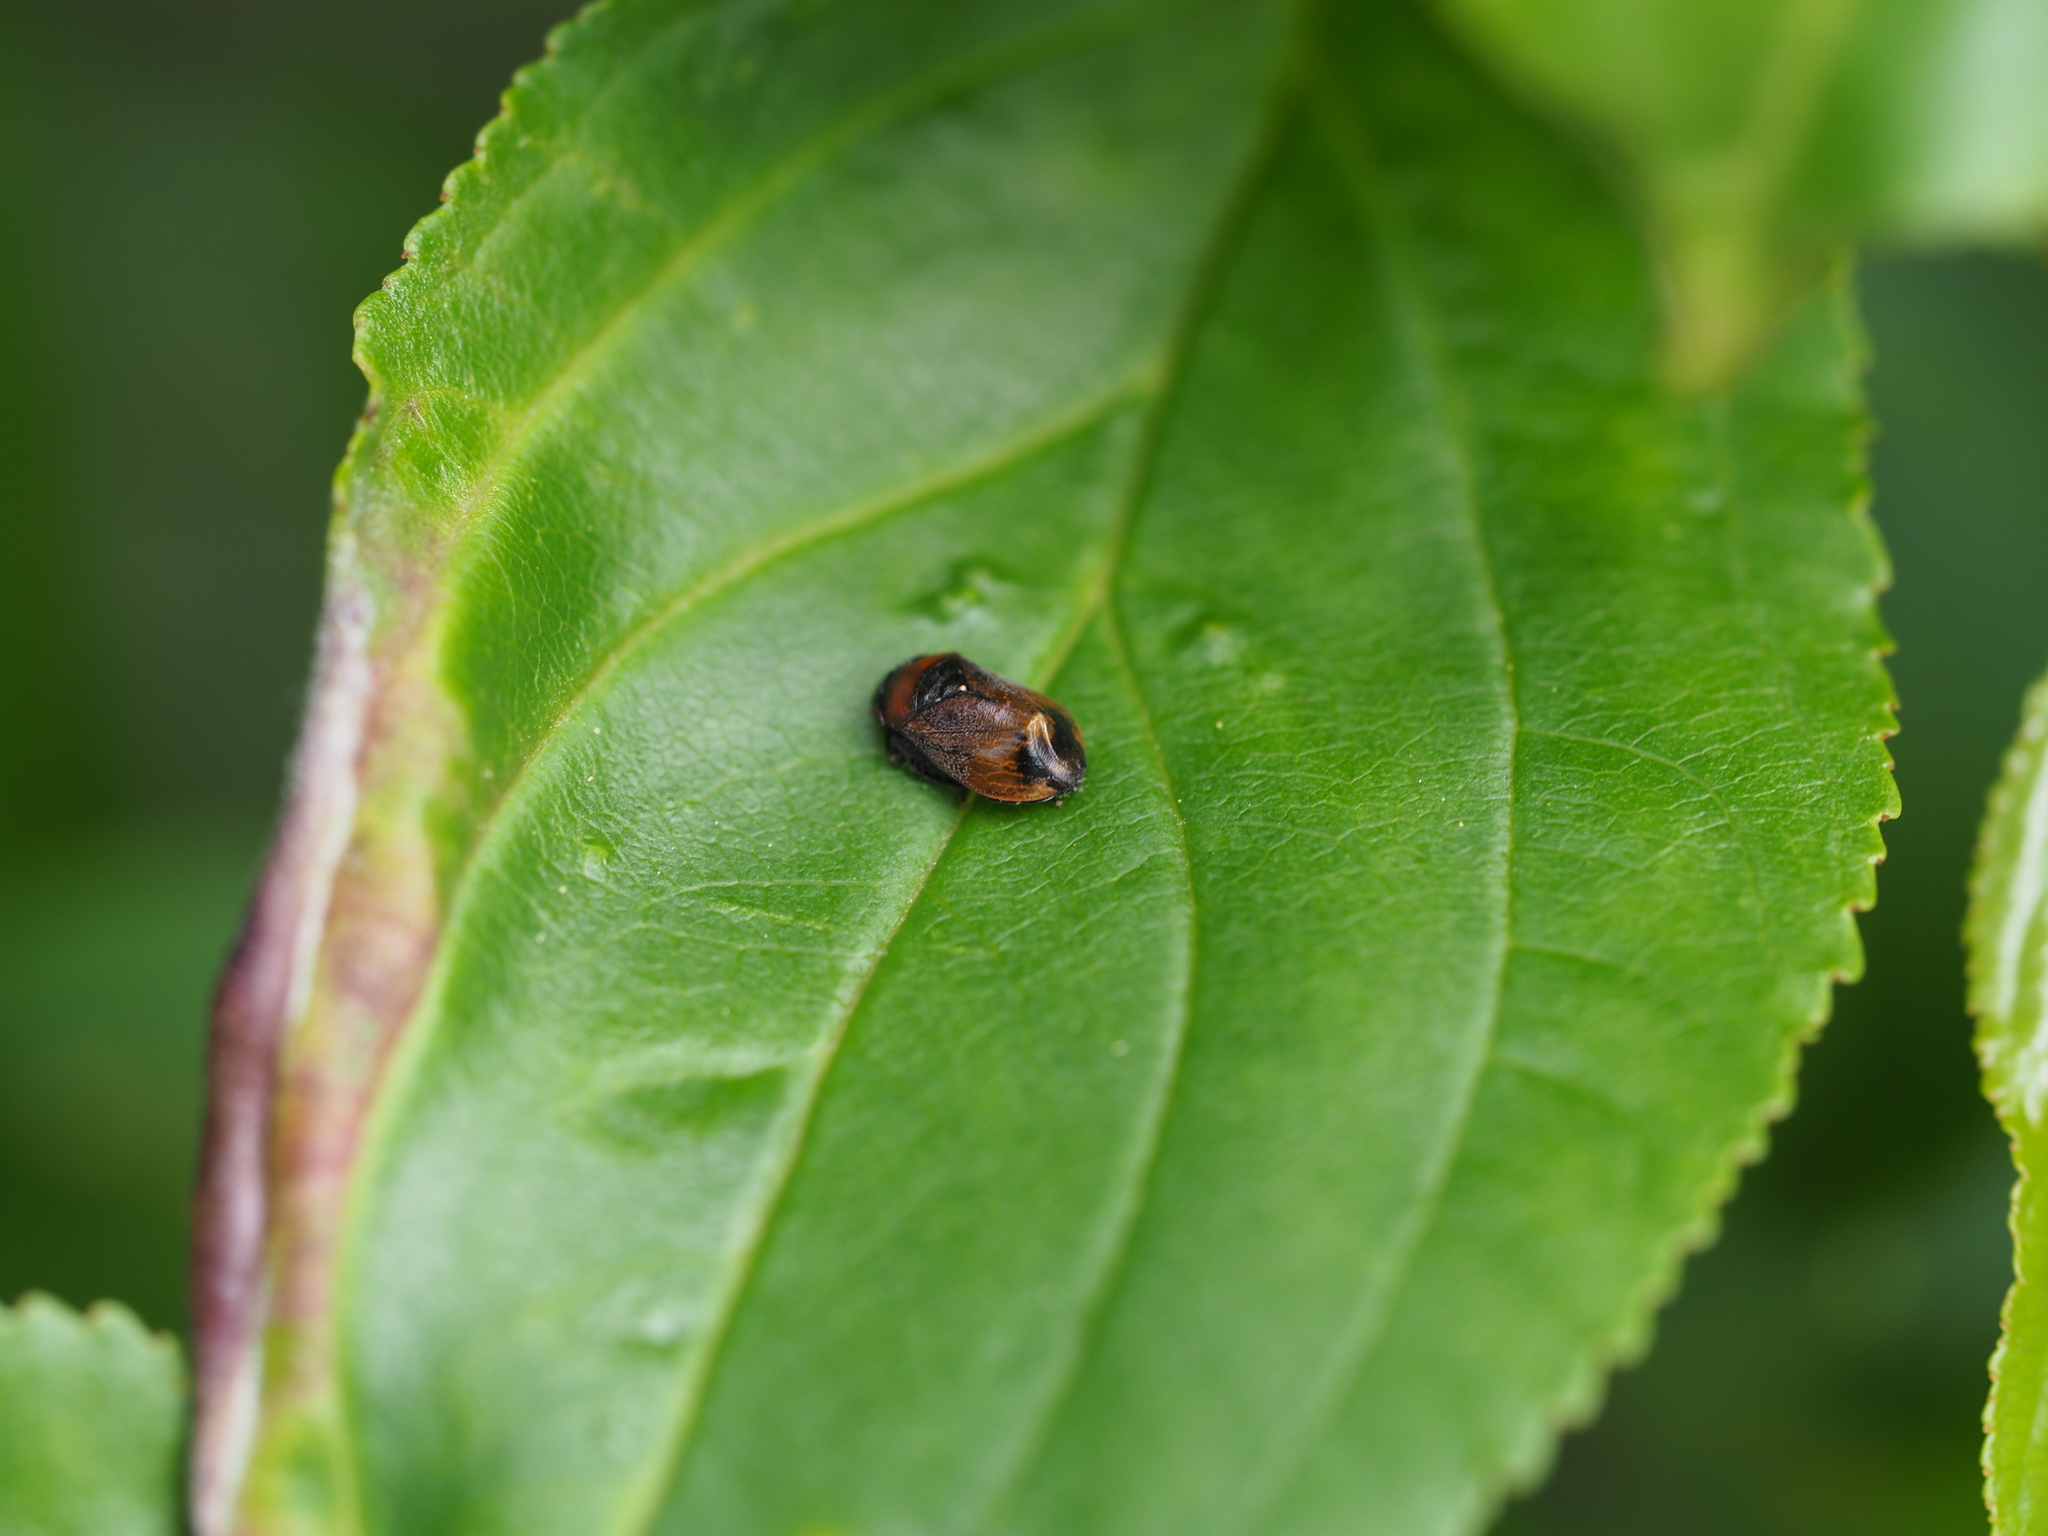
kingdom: Animalia
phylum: Arthropoda
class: Insecta
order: Hemiptera
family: Cicadellidae
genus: Penthimia
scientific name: Penthimia nigra
